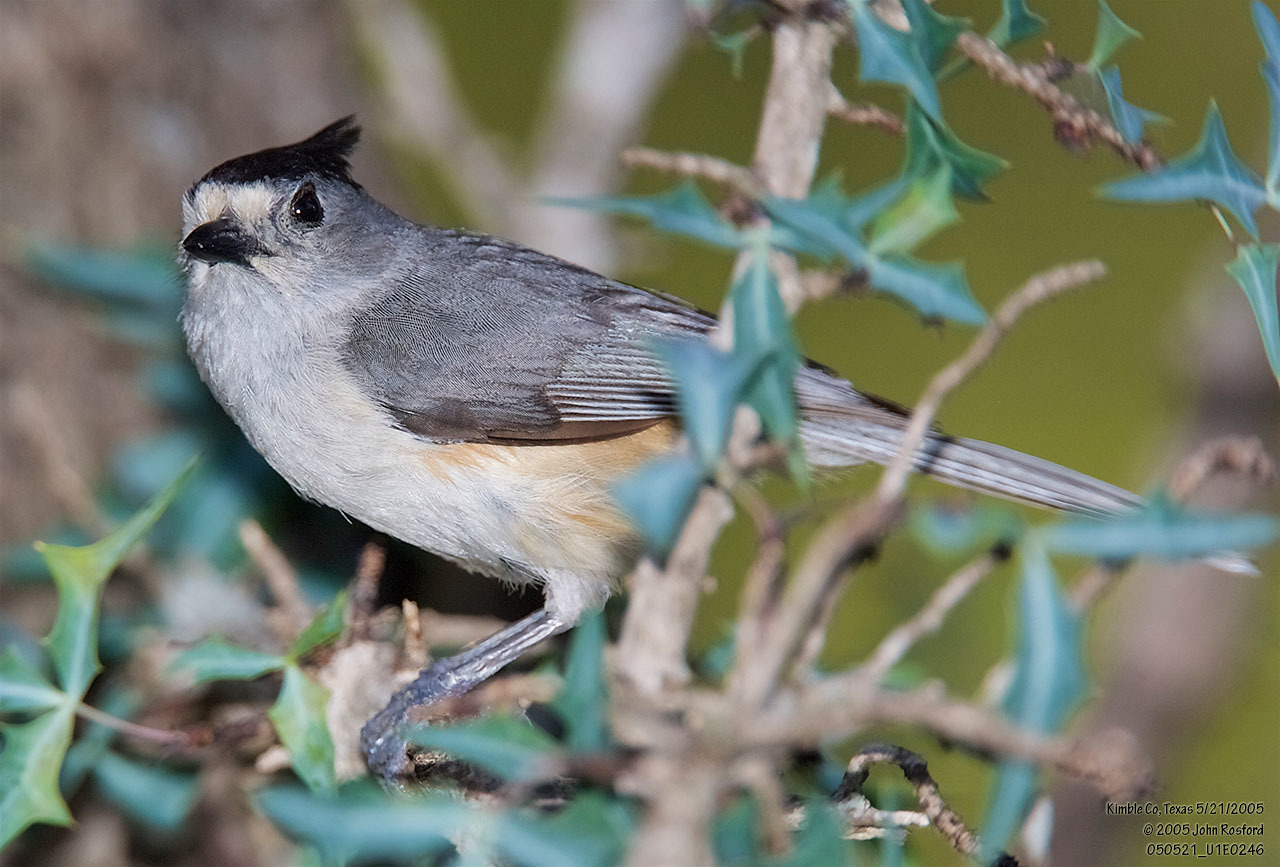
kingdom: Animalia
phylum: Chordata
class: Aves
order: Passeriformes
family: Paridae
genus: Baeolophus
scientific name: Baeolophus atricristatus
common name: Black-crested titmouse
